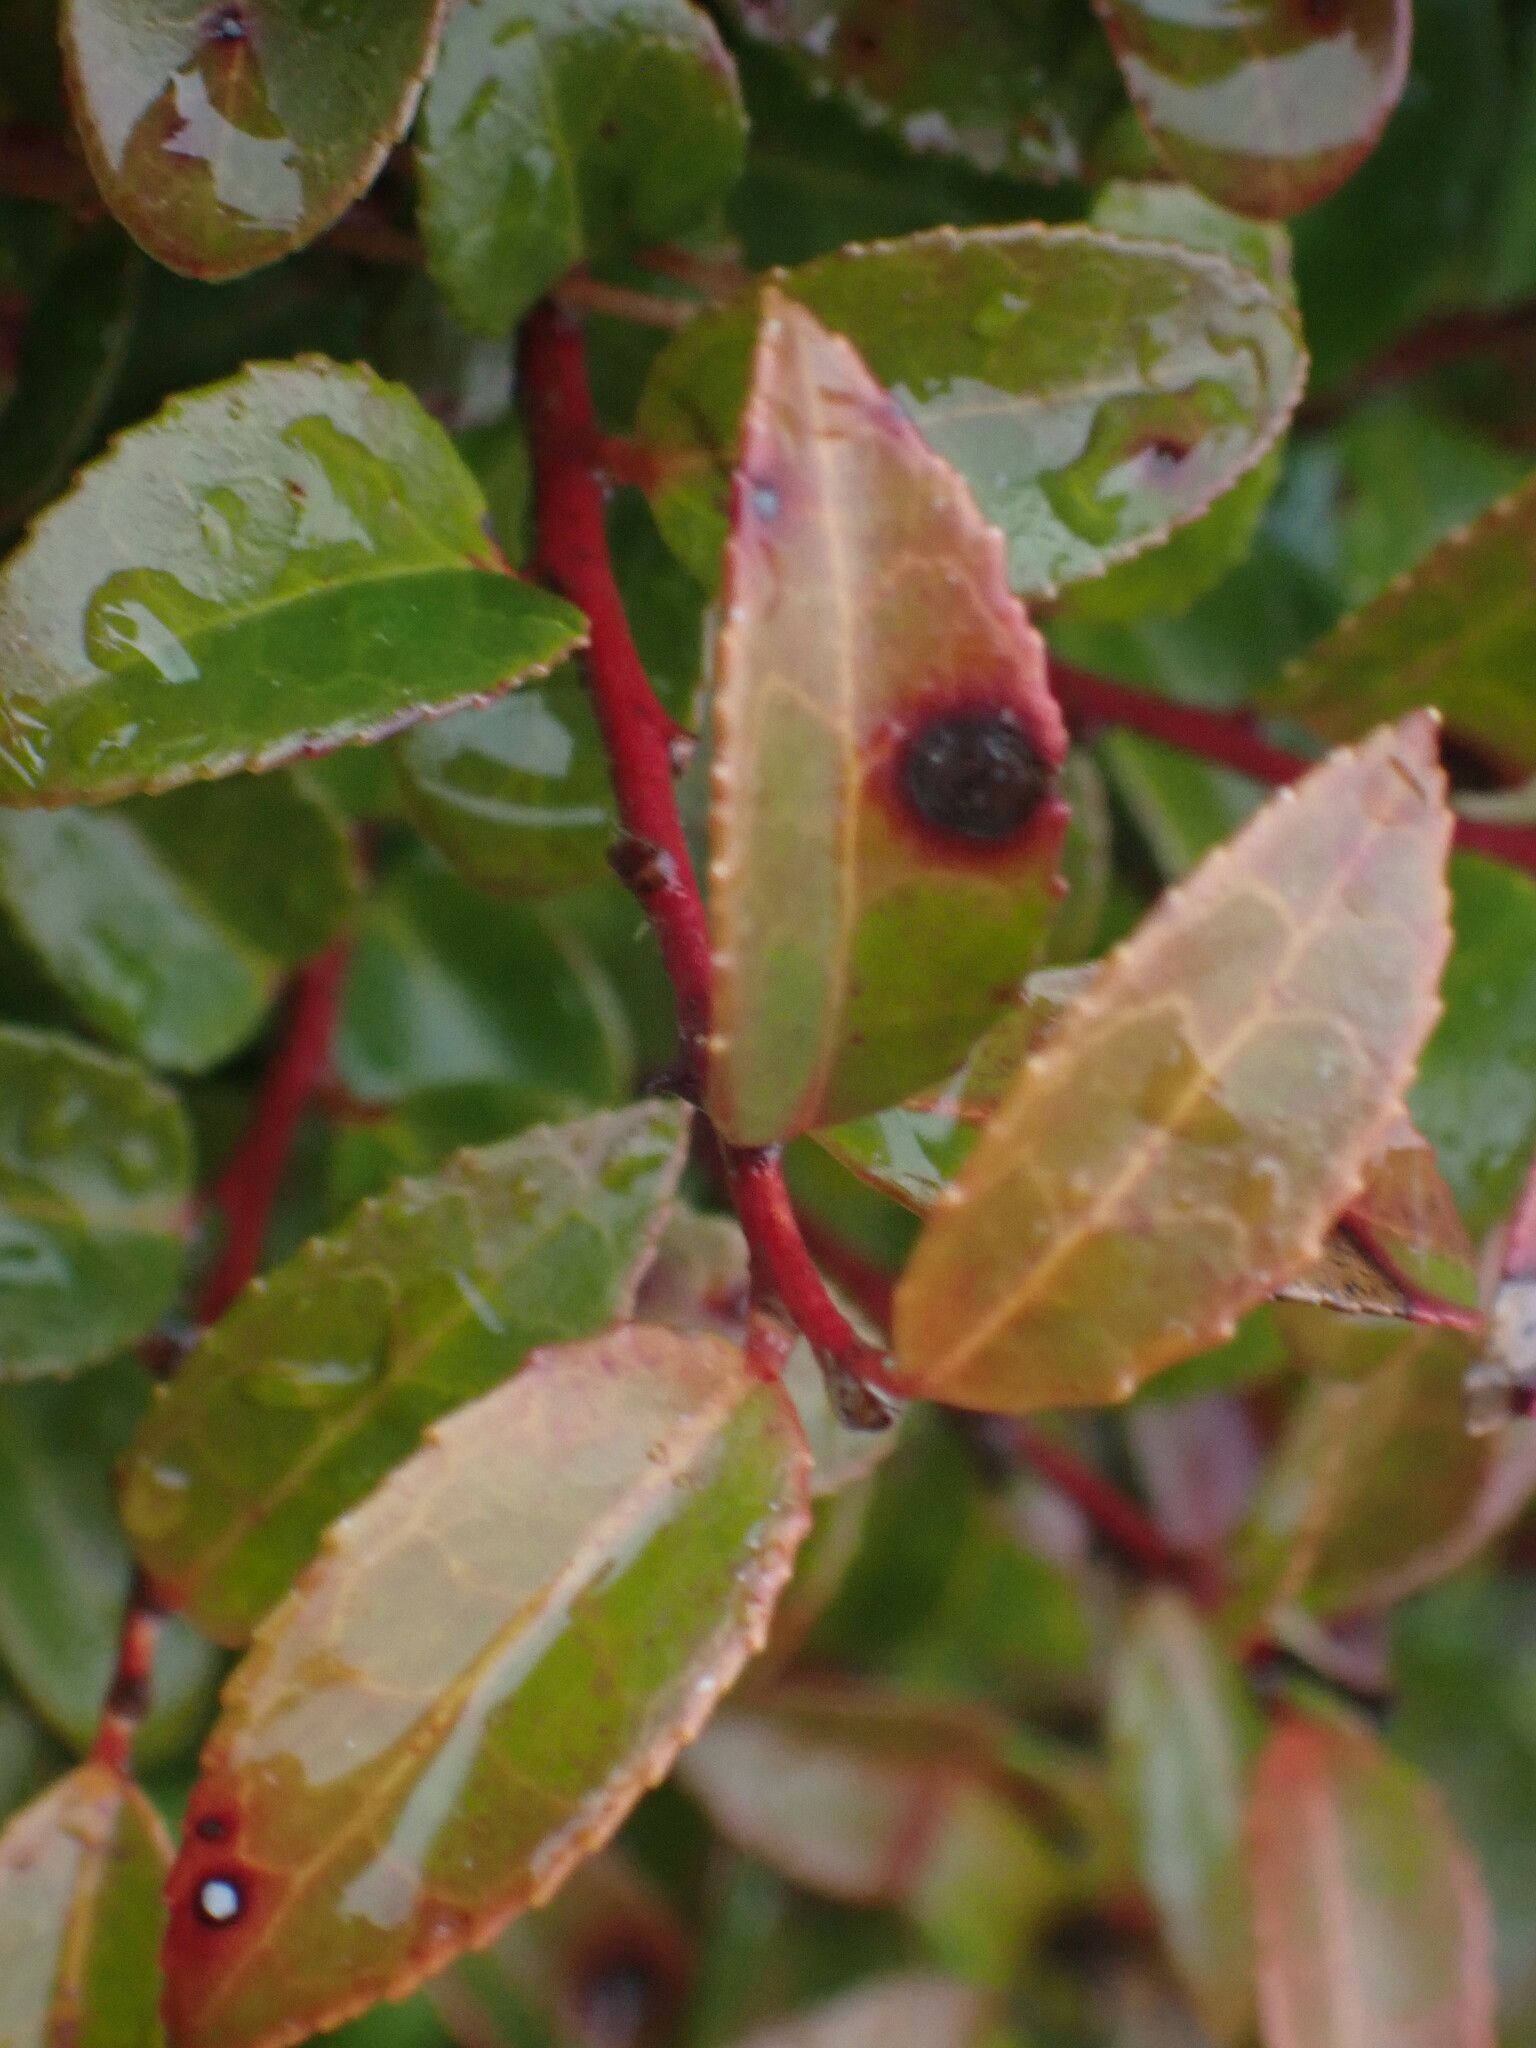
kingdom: Plantae
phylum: Tracheophyta
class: Magnoliopsida
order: Ericales
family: Ericaceae
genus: Vaccinium
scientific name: Vaccinium ovatum
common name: California-huckleberry
